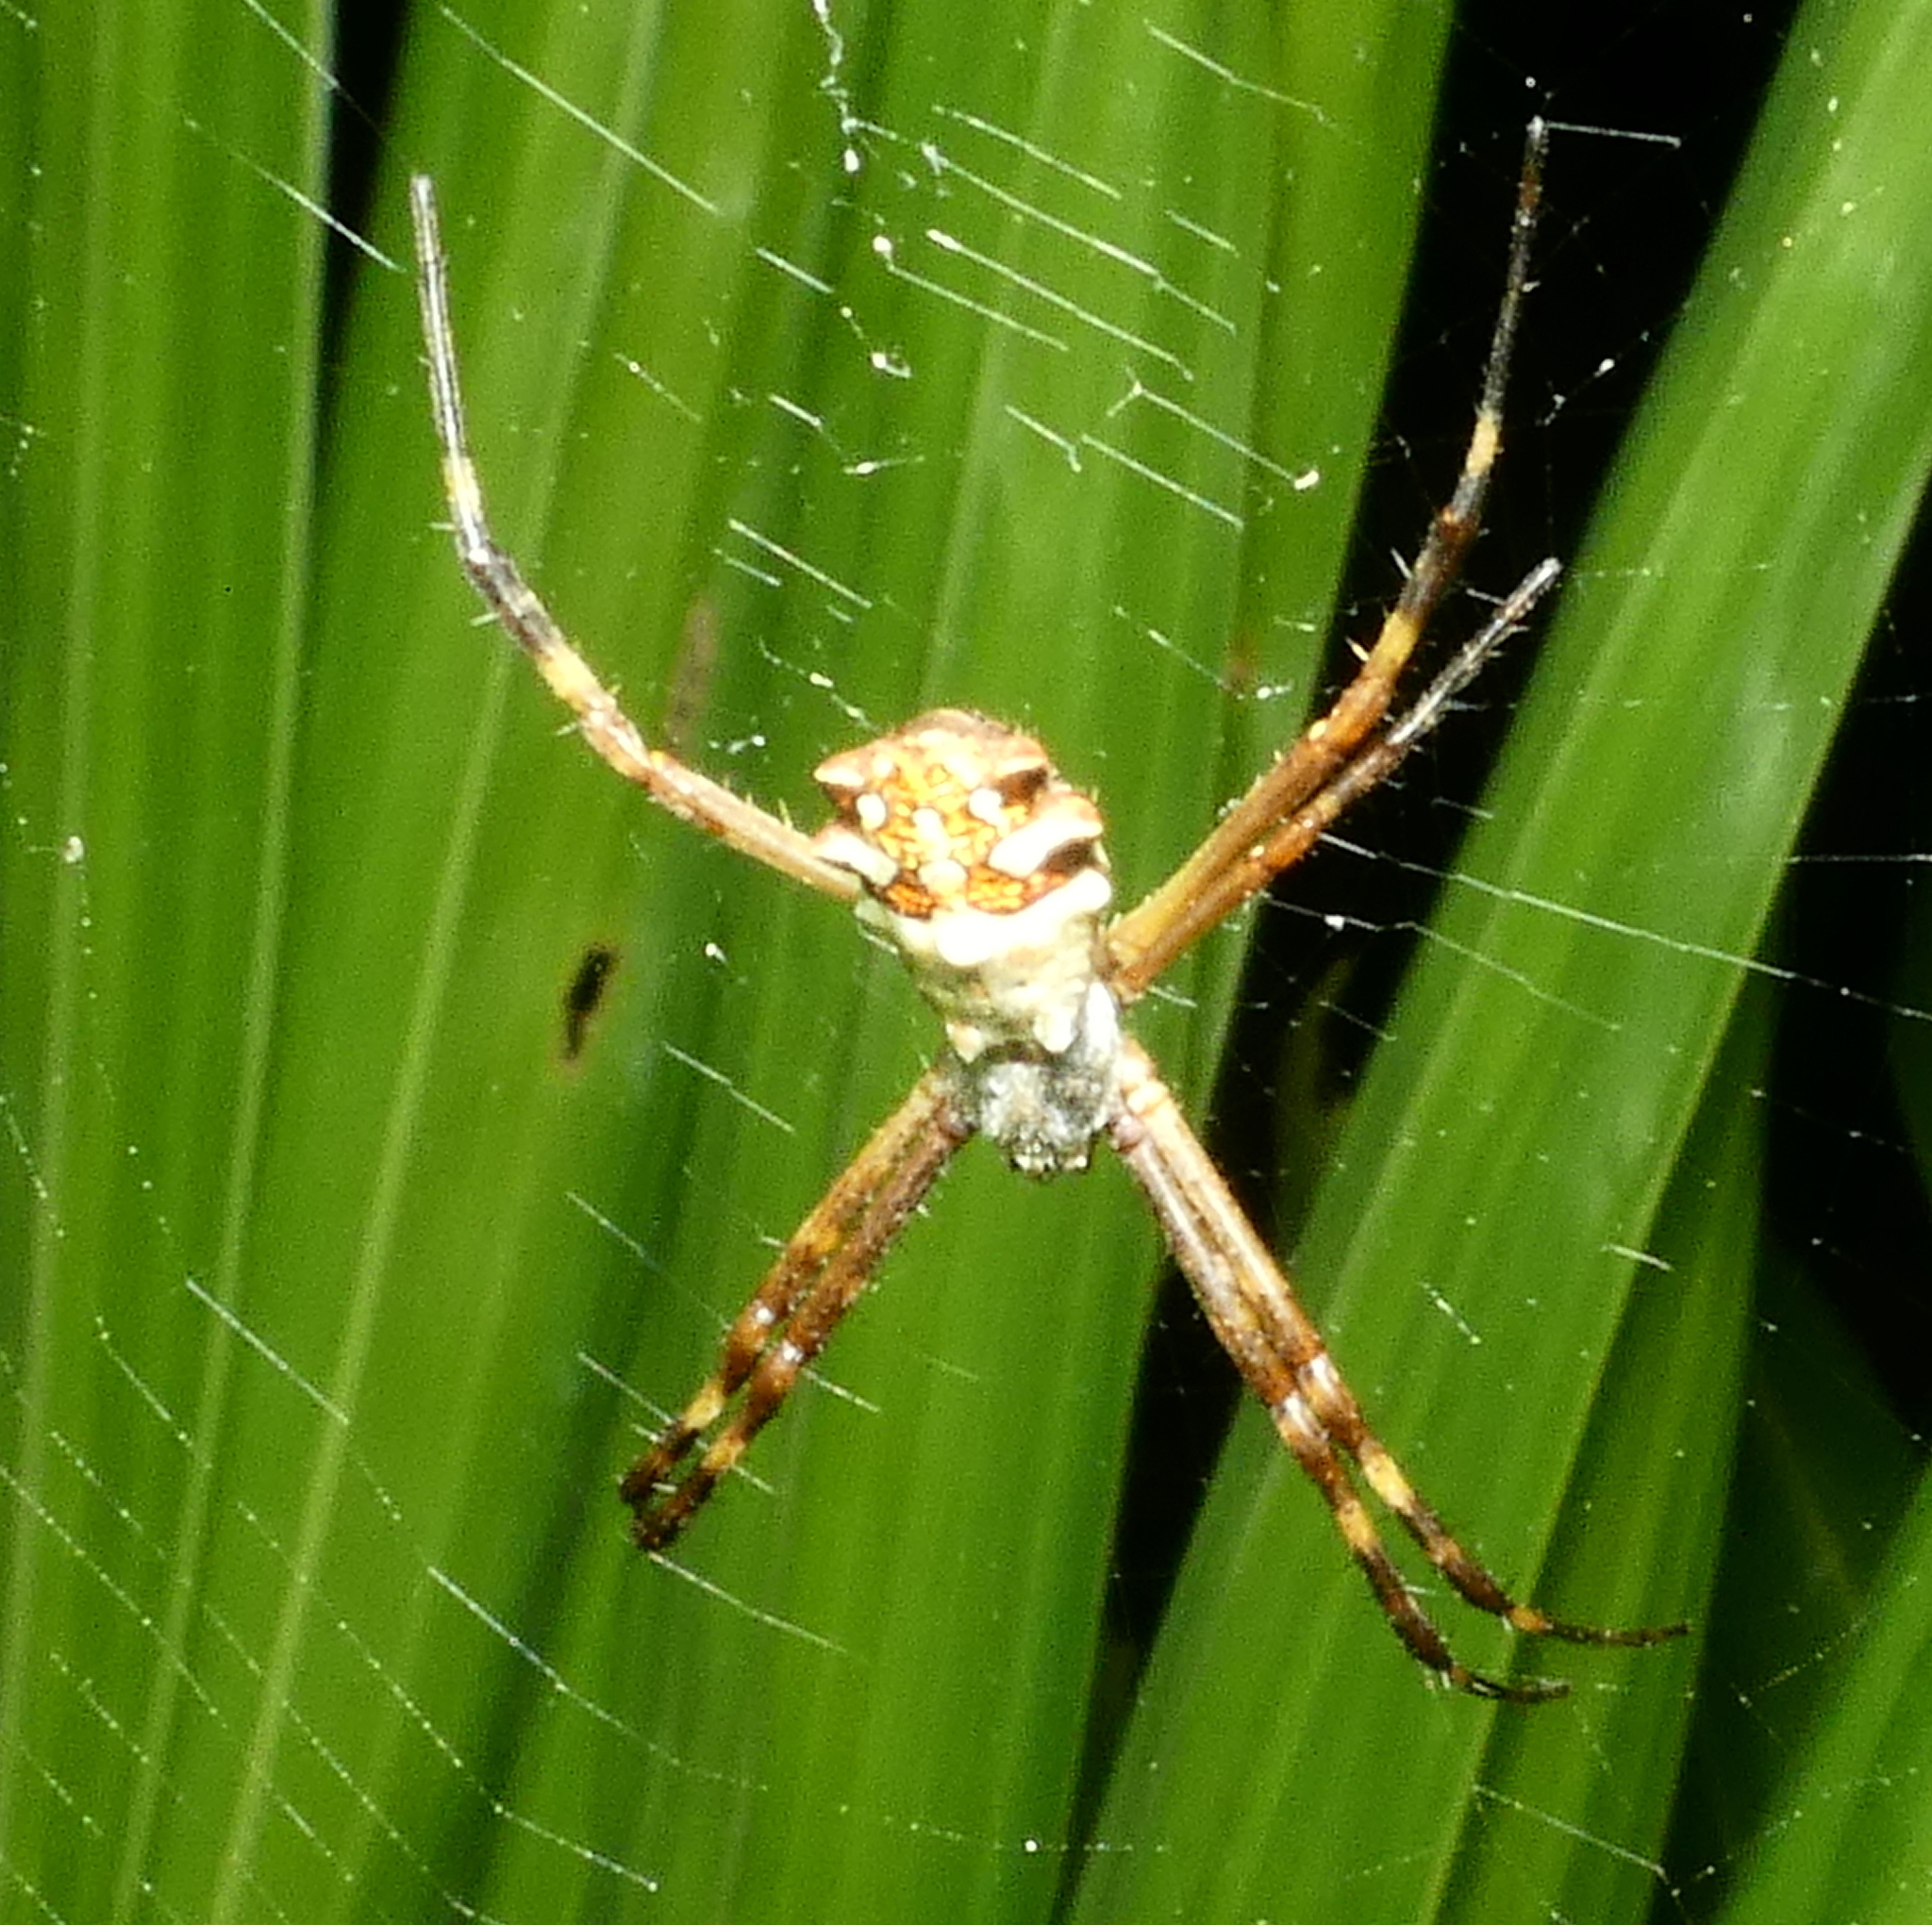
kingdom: Animalia
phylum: Arthropoda
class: Arachnida
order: Araneae
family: Araneidae
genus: Argiope
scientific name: Argiope argentata
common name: Orb weavers
